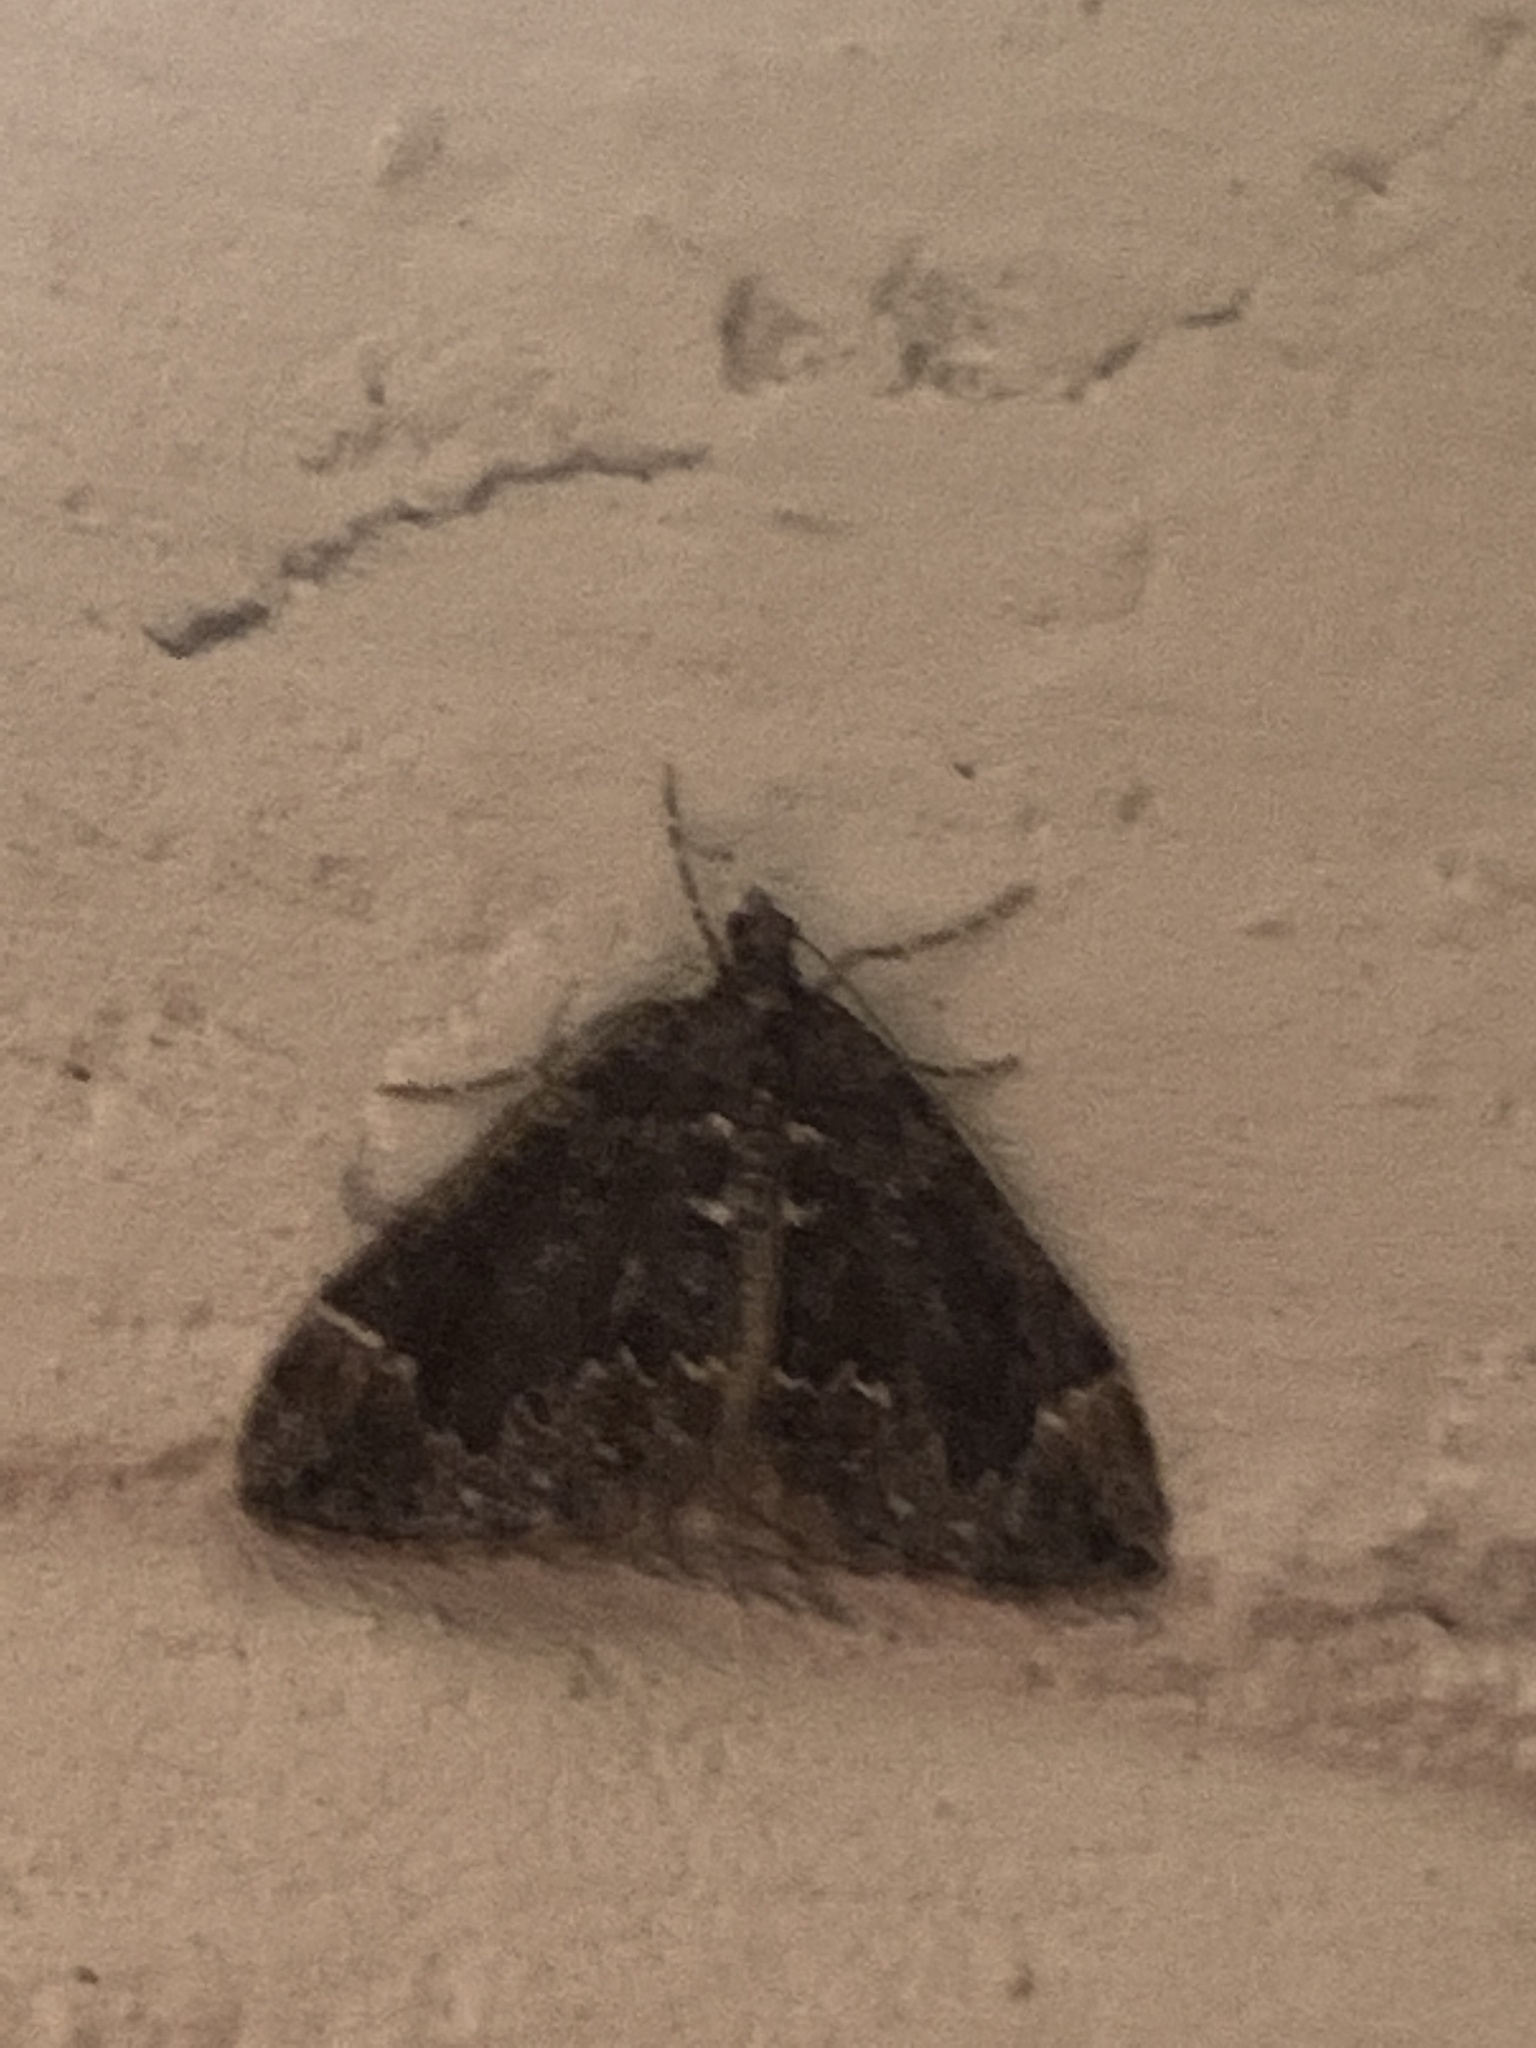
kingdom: Animalia
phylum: Arthropoda
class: Insecta
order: Lepidoptera
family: Geometridae
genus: Dysstroma
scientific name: Dysstroma citrata
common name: Dark marbled carpet
